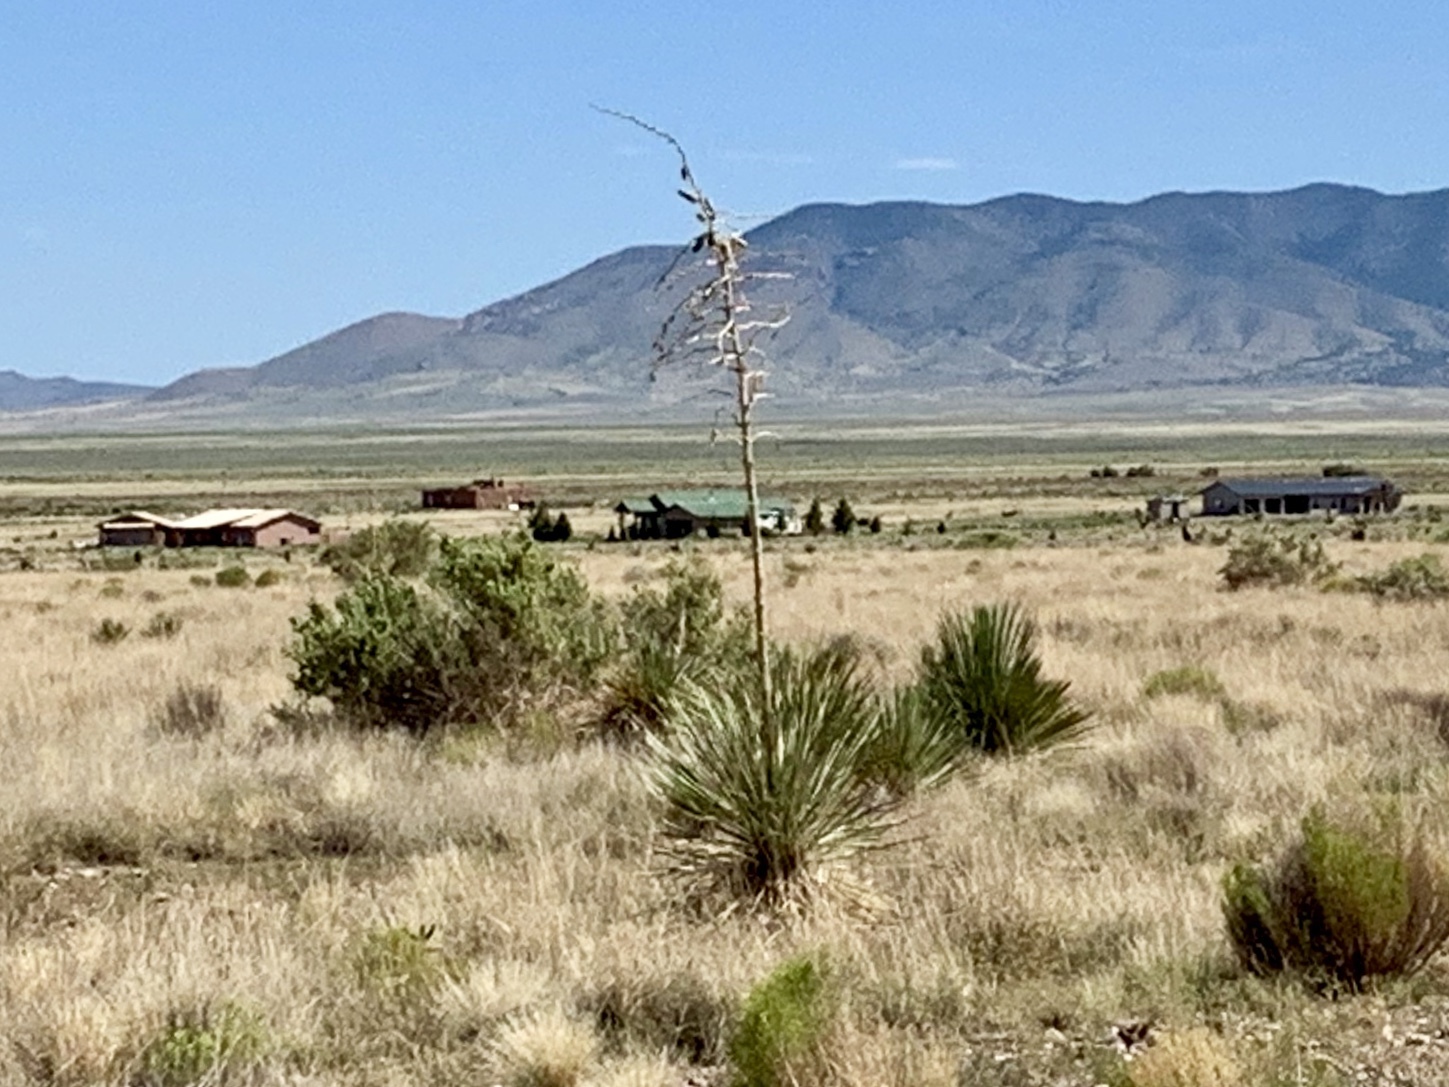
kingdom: Plantae
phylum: Tracheophyta
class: Liliopsida
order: Asparagales
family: Asparagaceae
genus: Yucca
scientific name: Yucca elata
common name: Palmella
